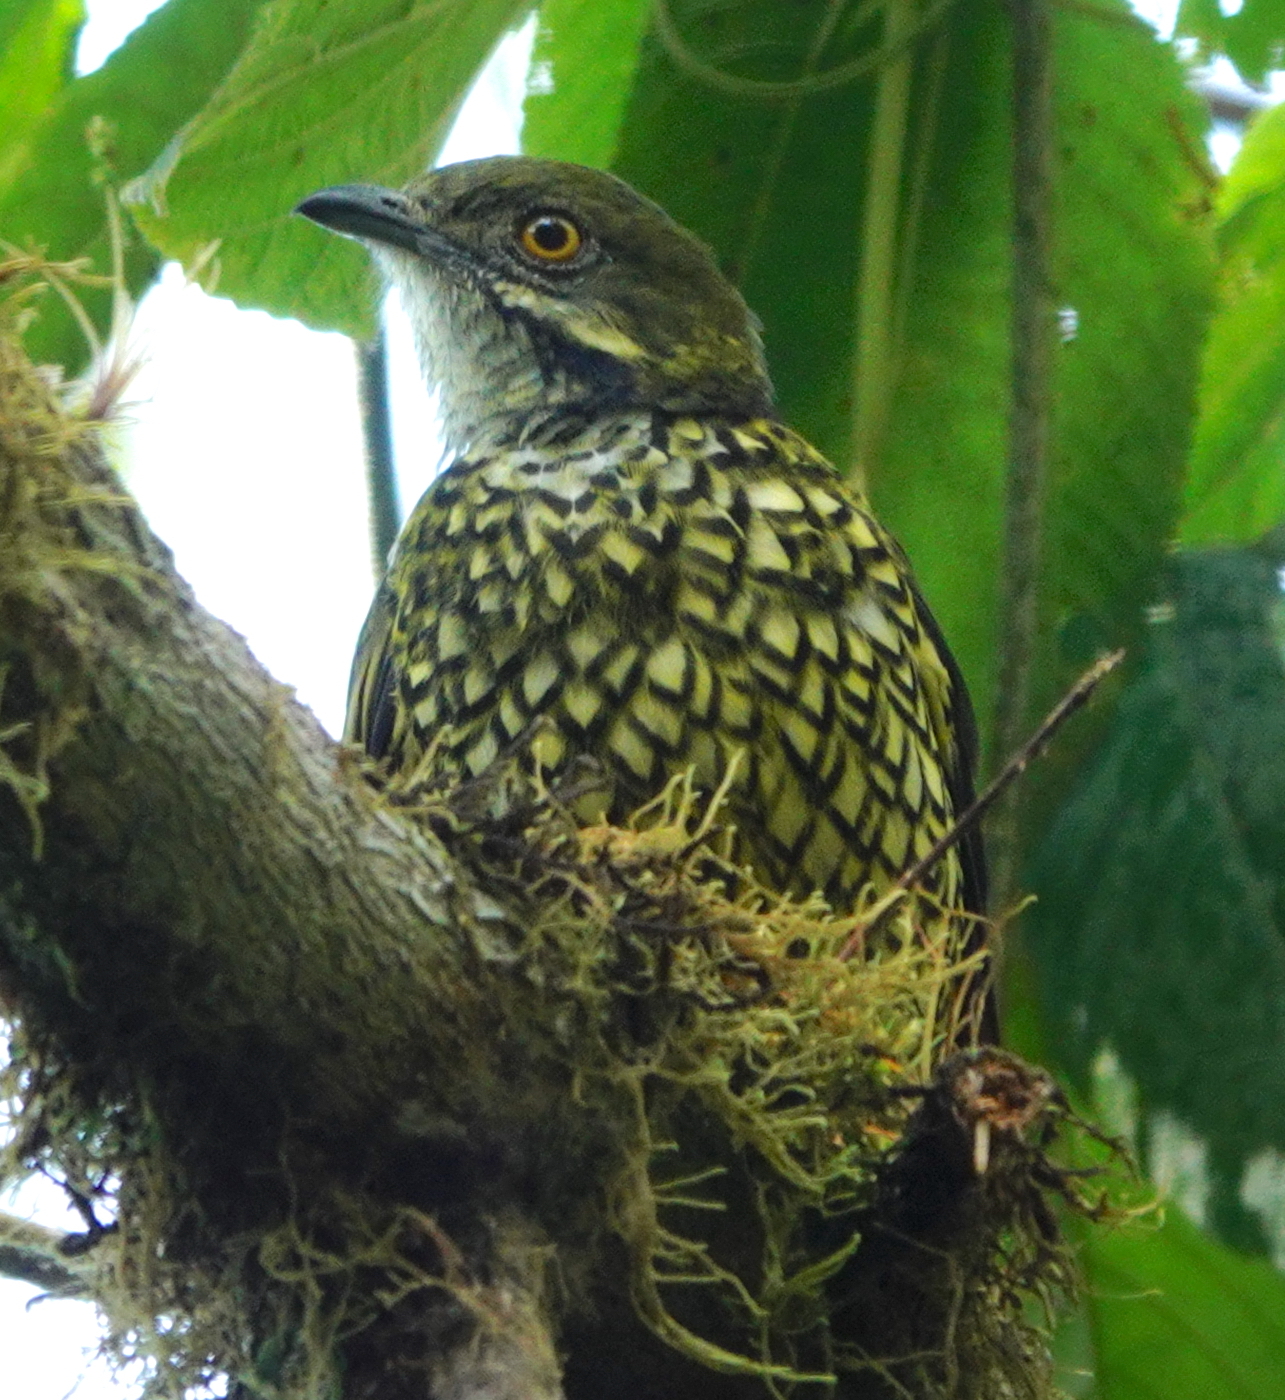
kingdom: Animalia
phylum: Chordata
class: Aves
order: Passeriformes
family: Cotingidae
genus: Ampelioides
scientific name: Ampelioides tschudii
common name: Scaled fruiteater
